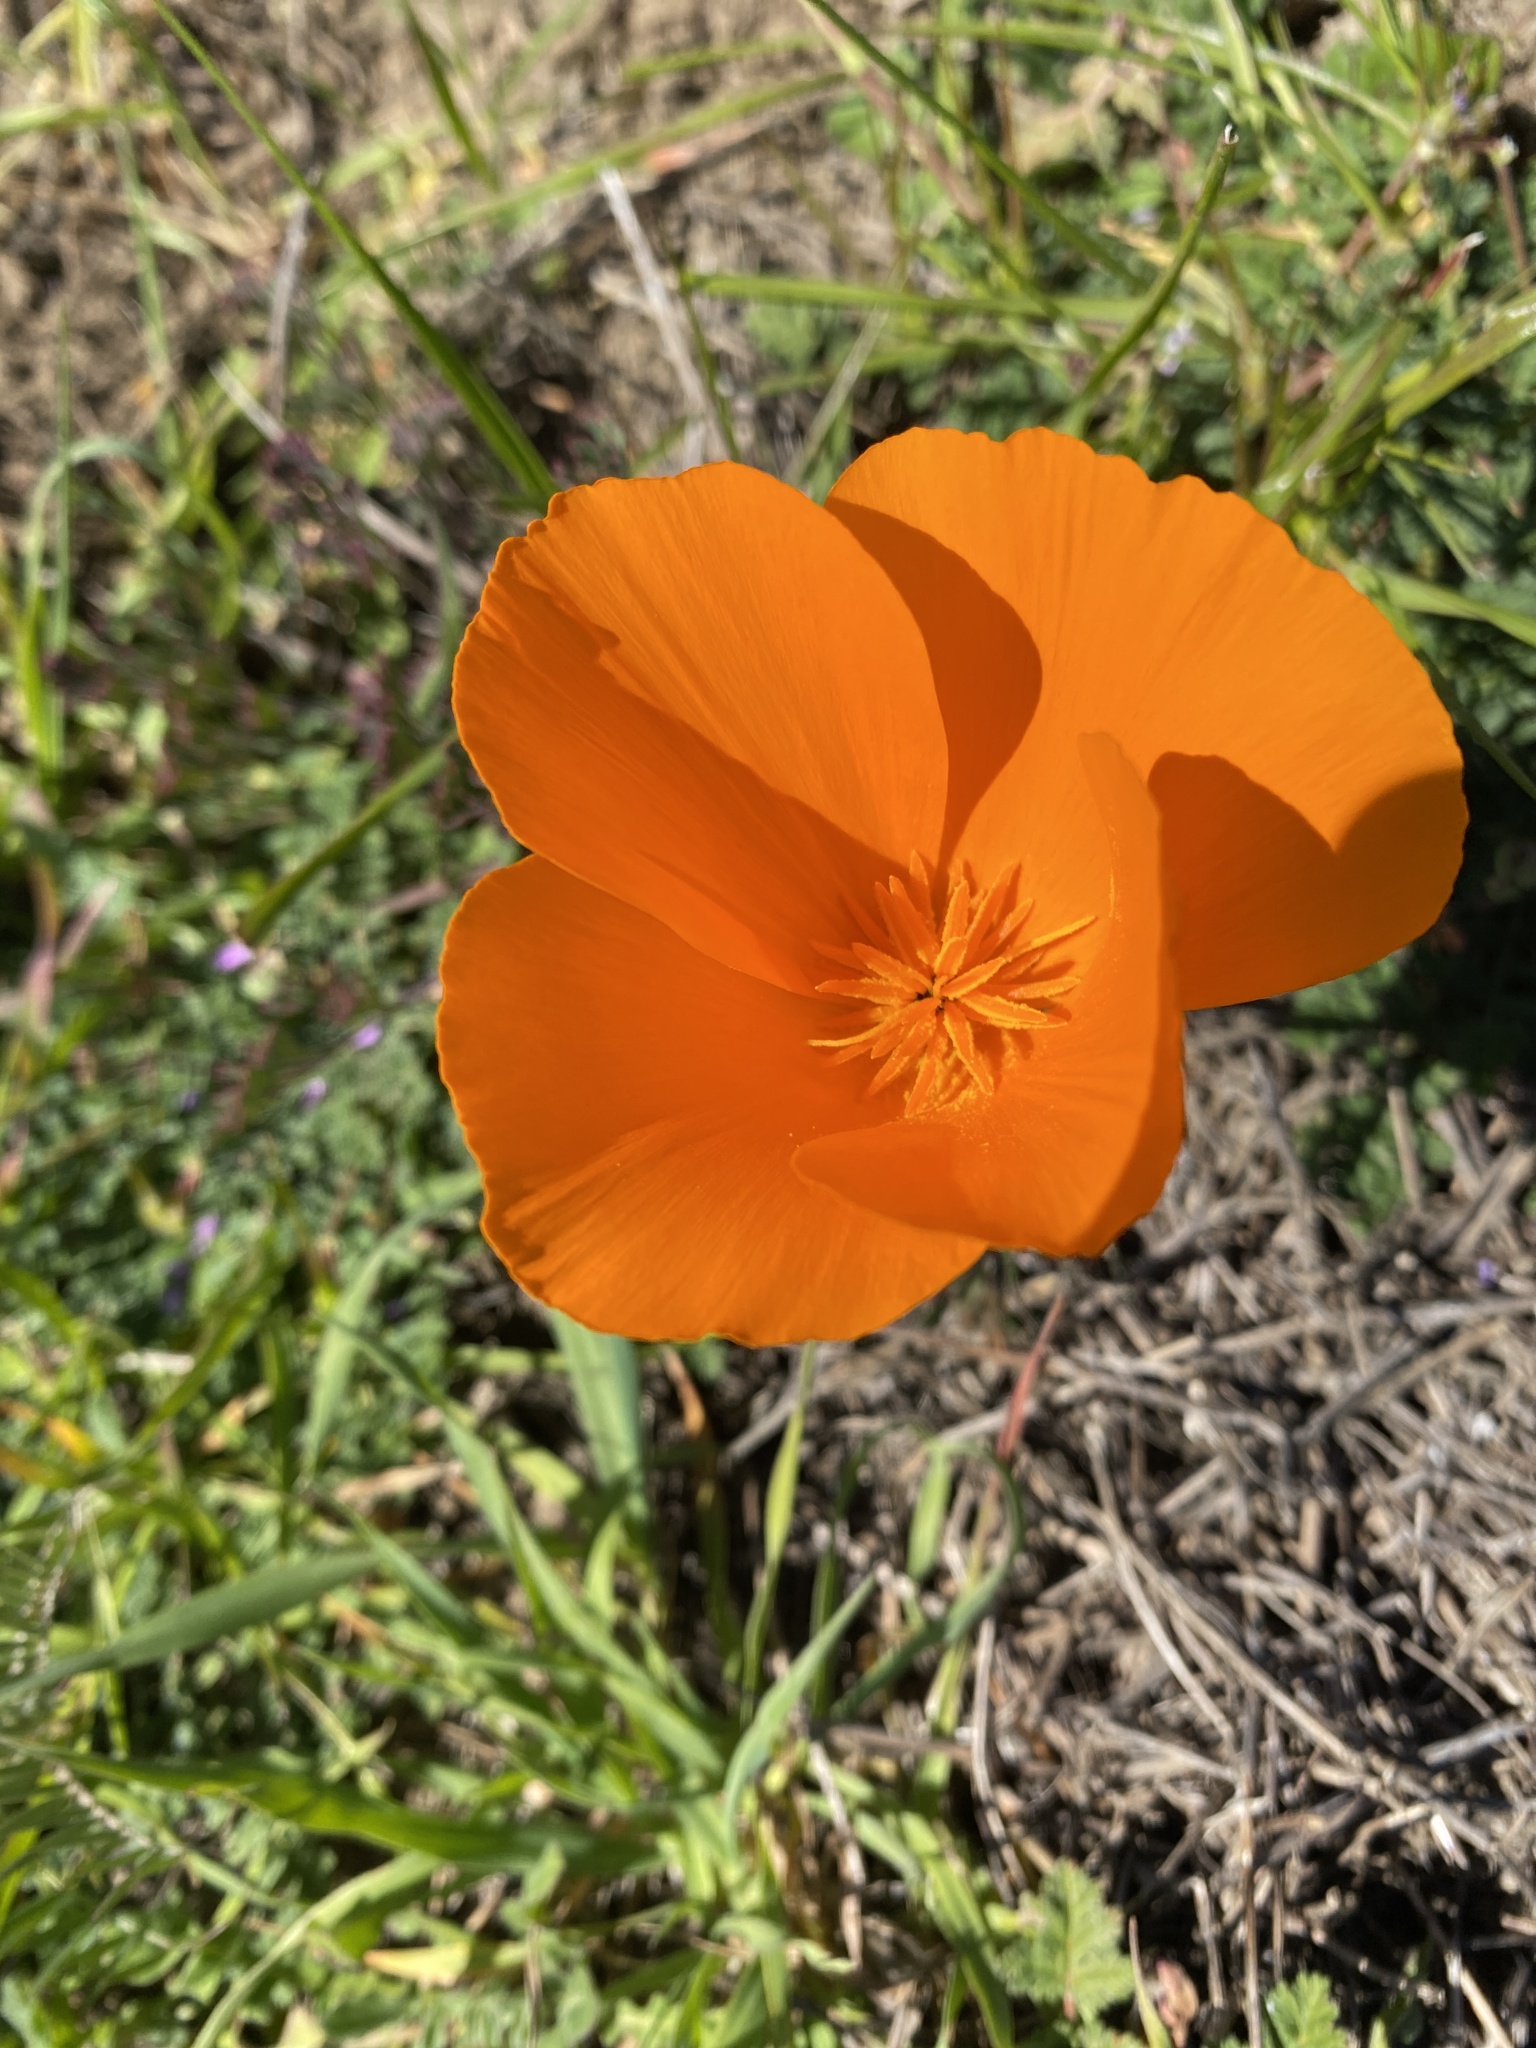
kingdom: Plantae
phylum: Tracheophyta
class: Magnoliopsida
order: Ranunculales
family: Papaveraceae
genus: Eschscholzia
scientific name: Eschscholzia californica
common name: California poppy
